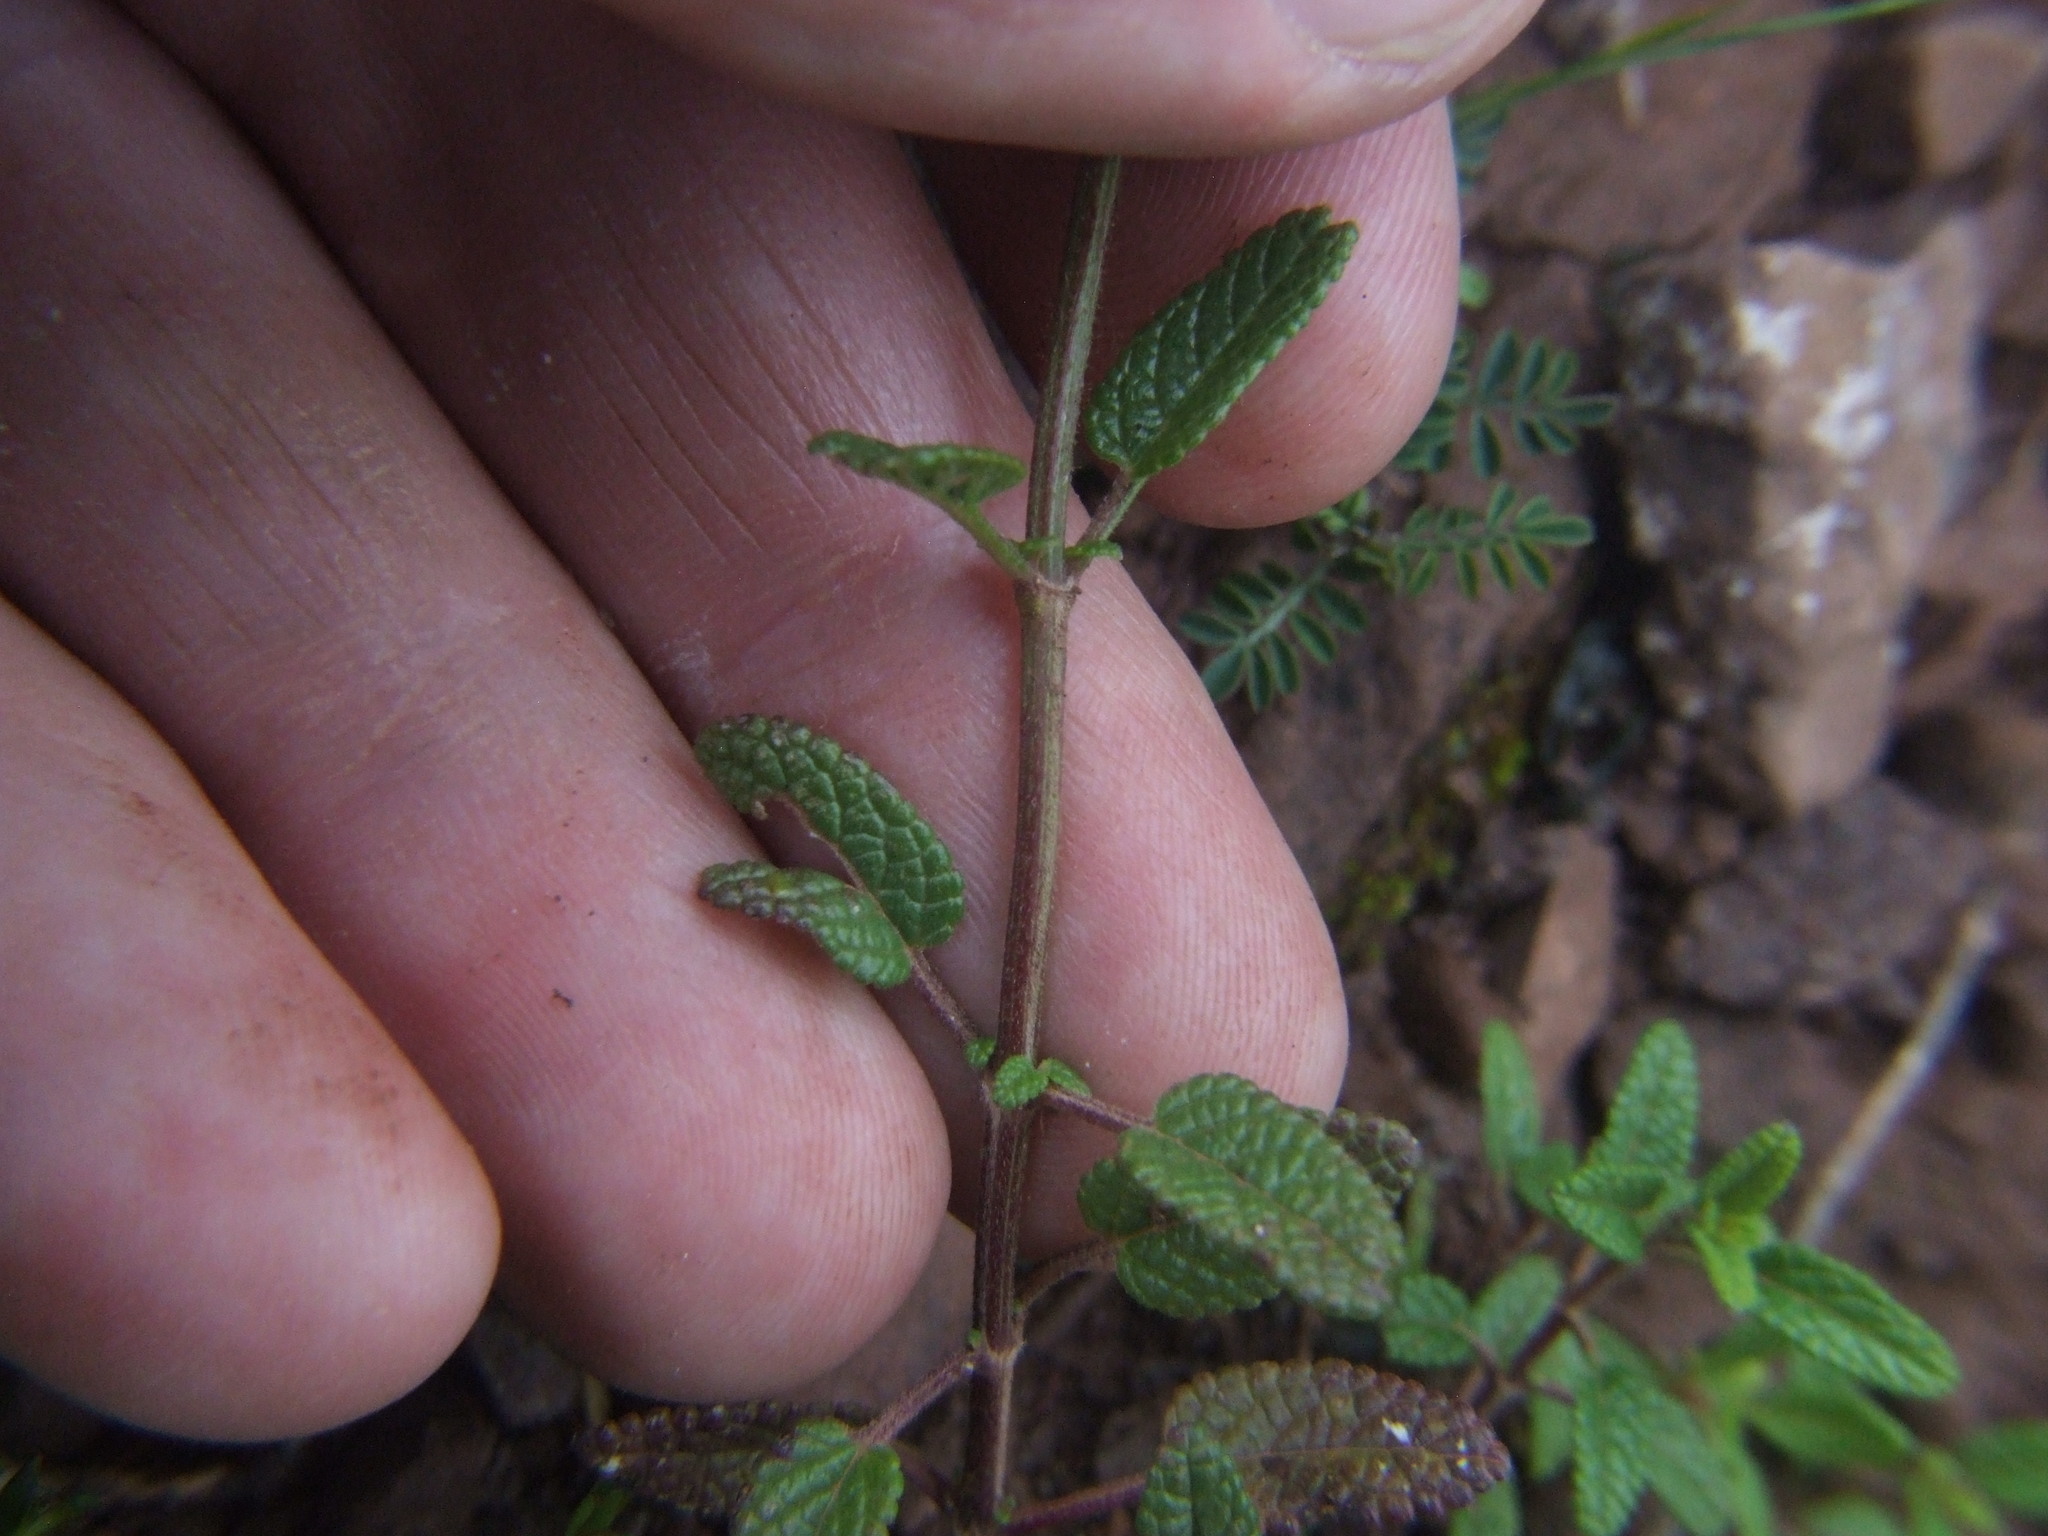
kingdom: Plantae
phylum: Tracheophyta
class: Magnoliopsida
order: Lamiales
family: Lamiaceae
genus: Salvia
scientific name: Salvia oppositiflora
